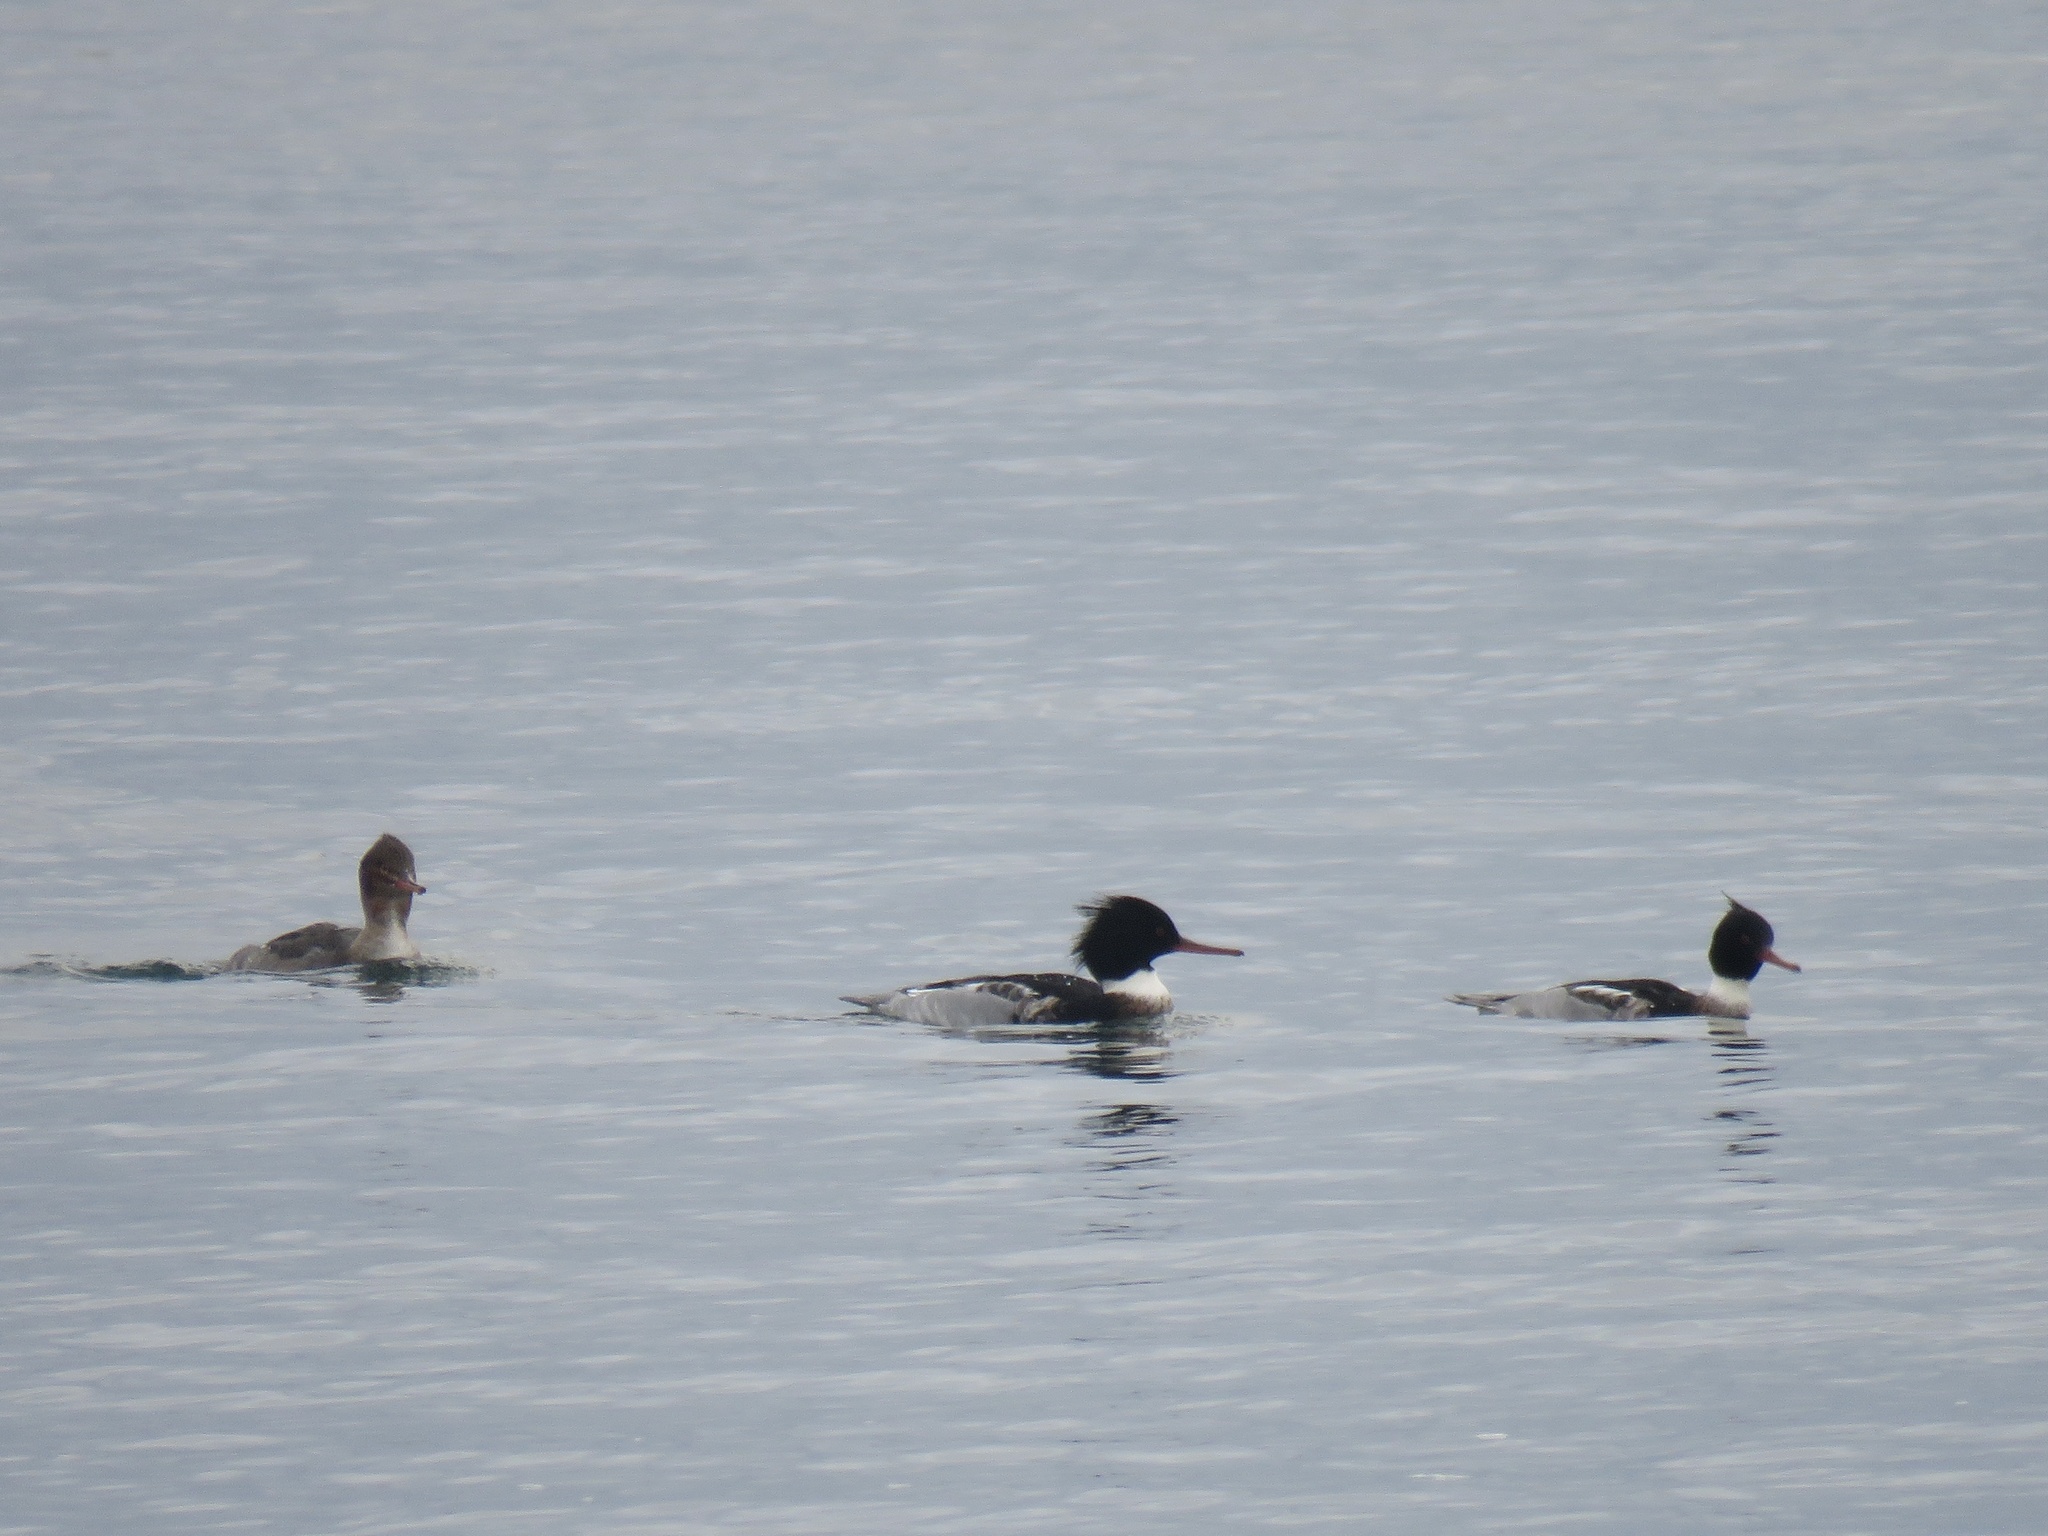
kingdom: Animalia
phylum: Chordata
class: Aves
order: Anseriformes
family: Anatidae
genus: Mergus
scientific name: Mergus serrator
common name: Red-breasted merganser
